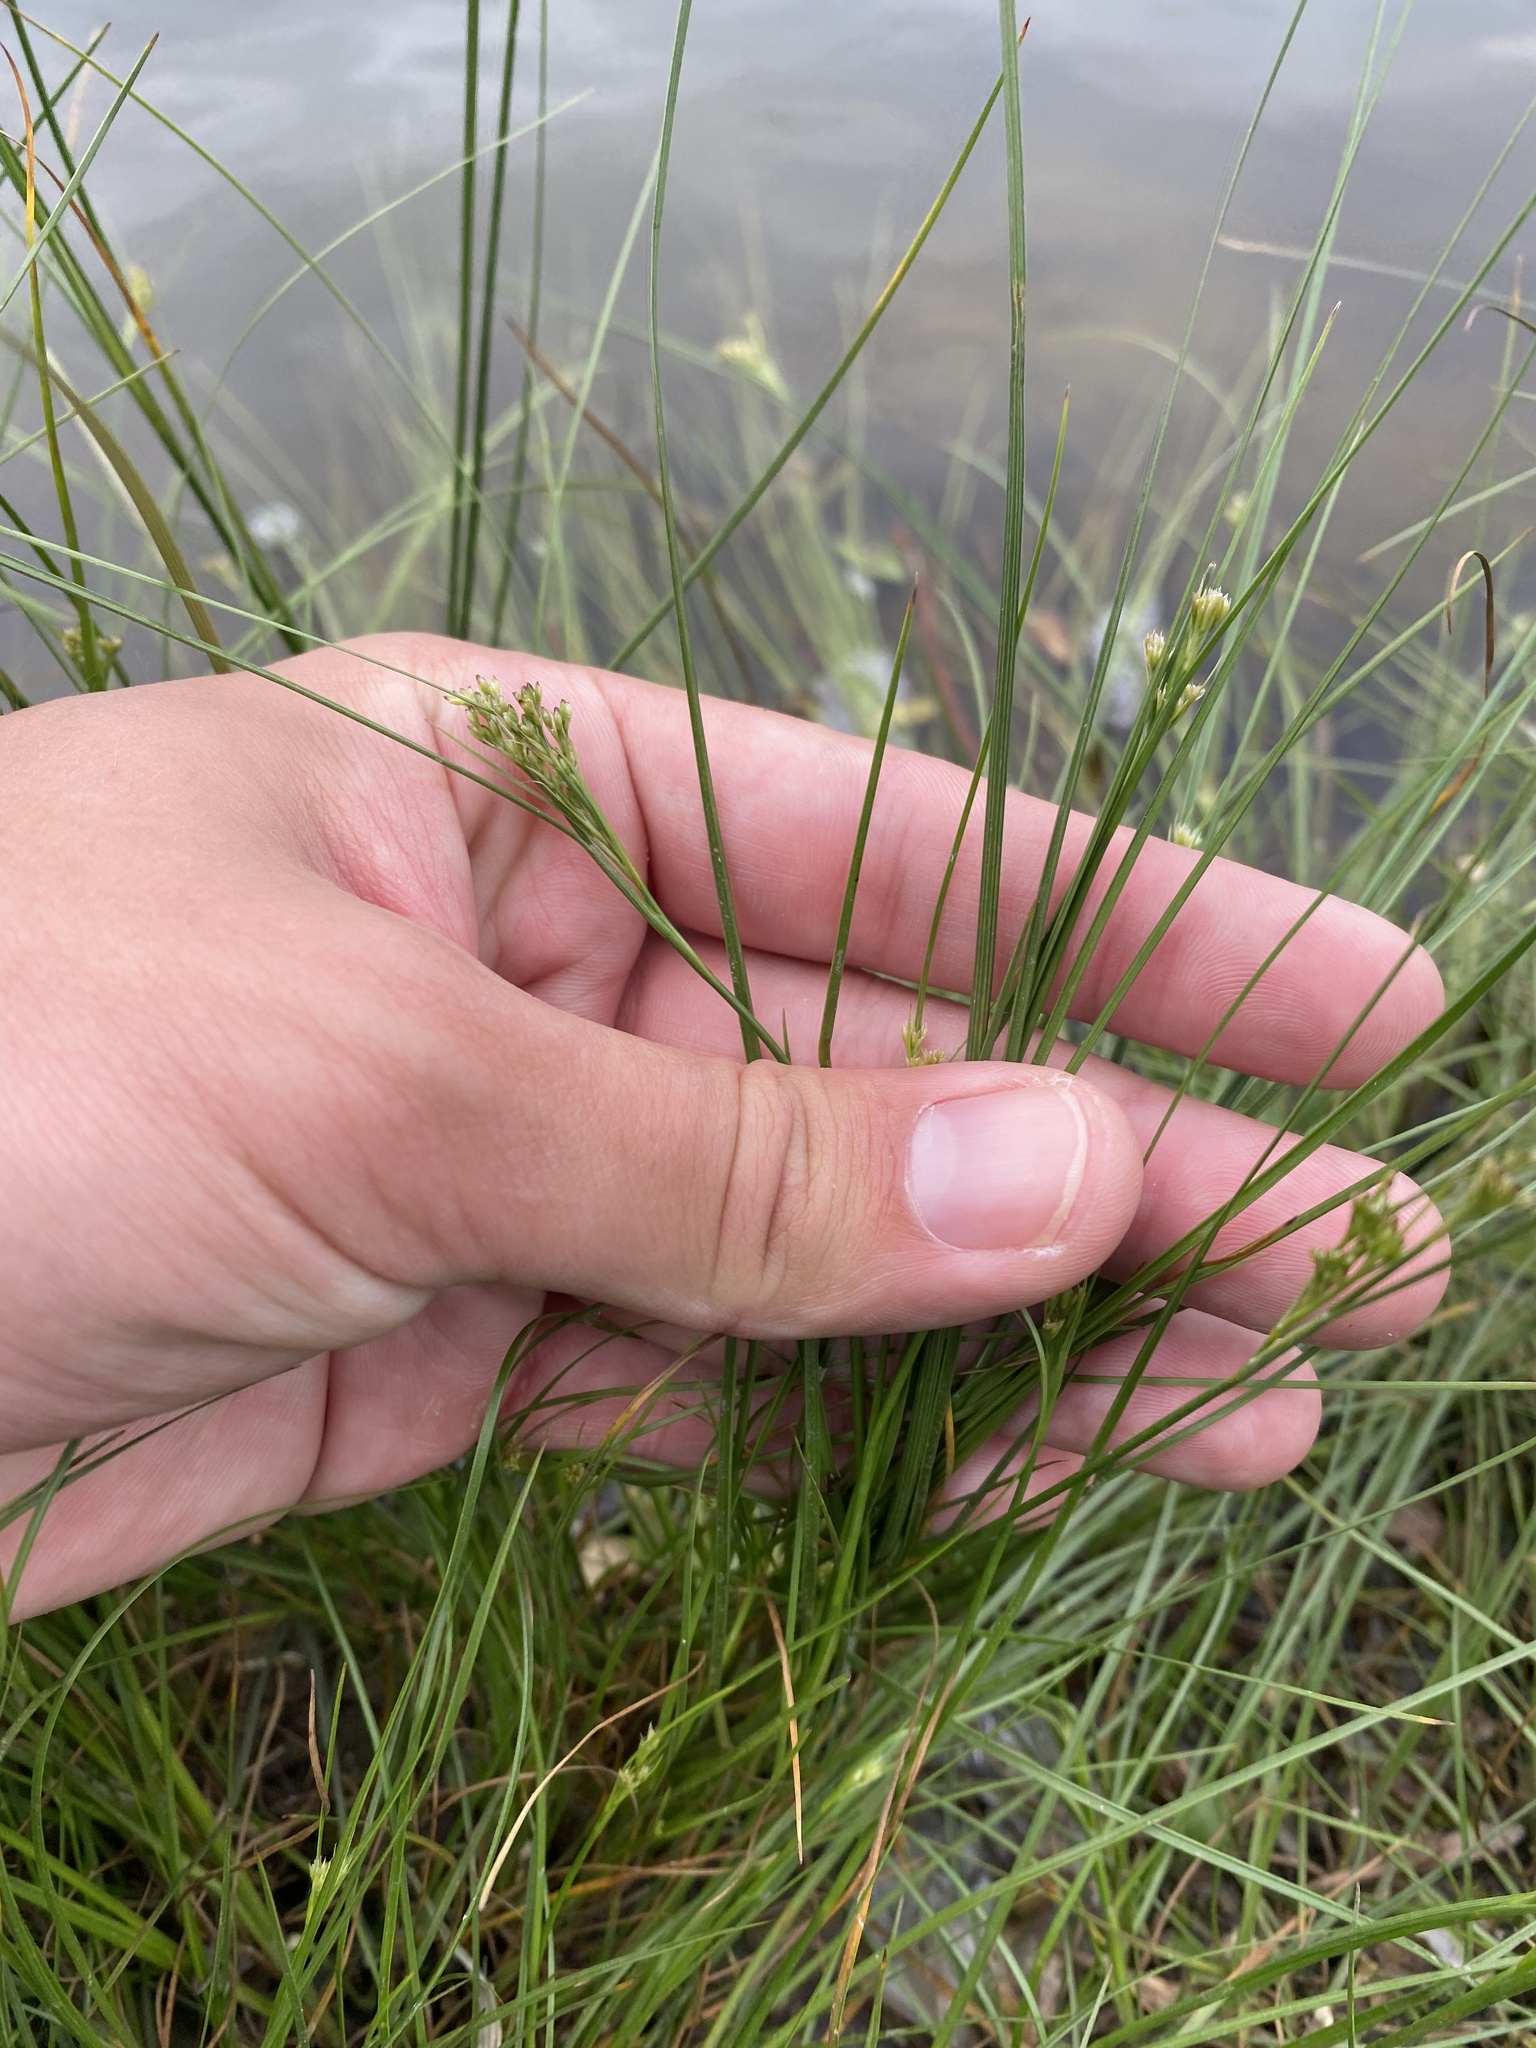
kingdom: Plantae
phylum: Tracheophyta
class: Liliopsida
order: Poales
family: Juncaceae
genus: Juncus
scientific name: Juncus compressus
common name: Round-fruited rush
